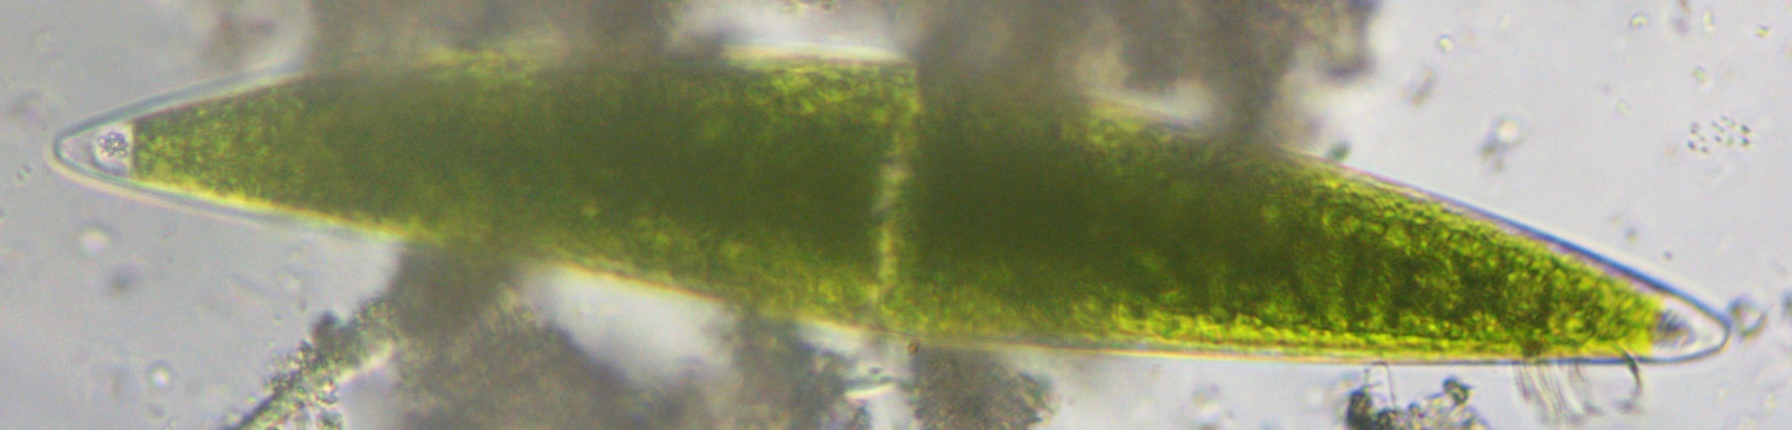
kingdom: Plantae
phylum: Charophyta
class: Zygnematophyceae
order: Zygnematales
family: Closteriaceae
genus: Closterium
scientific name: Closterium lanceolatum
